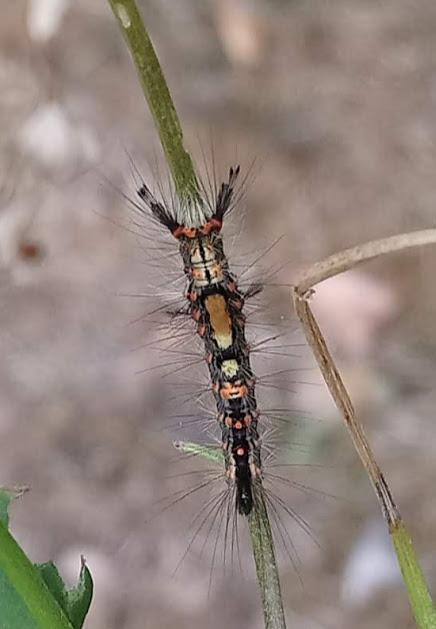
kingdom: Animalia
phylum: Arthropoda
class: Insecta
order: Lepidoptera
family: Erebidae
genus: Orgyia
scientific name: Orgyia antiqua
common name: Vapourer
